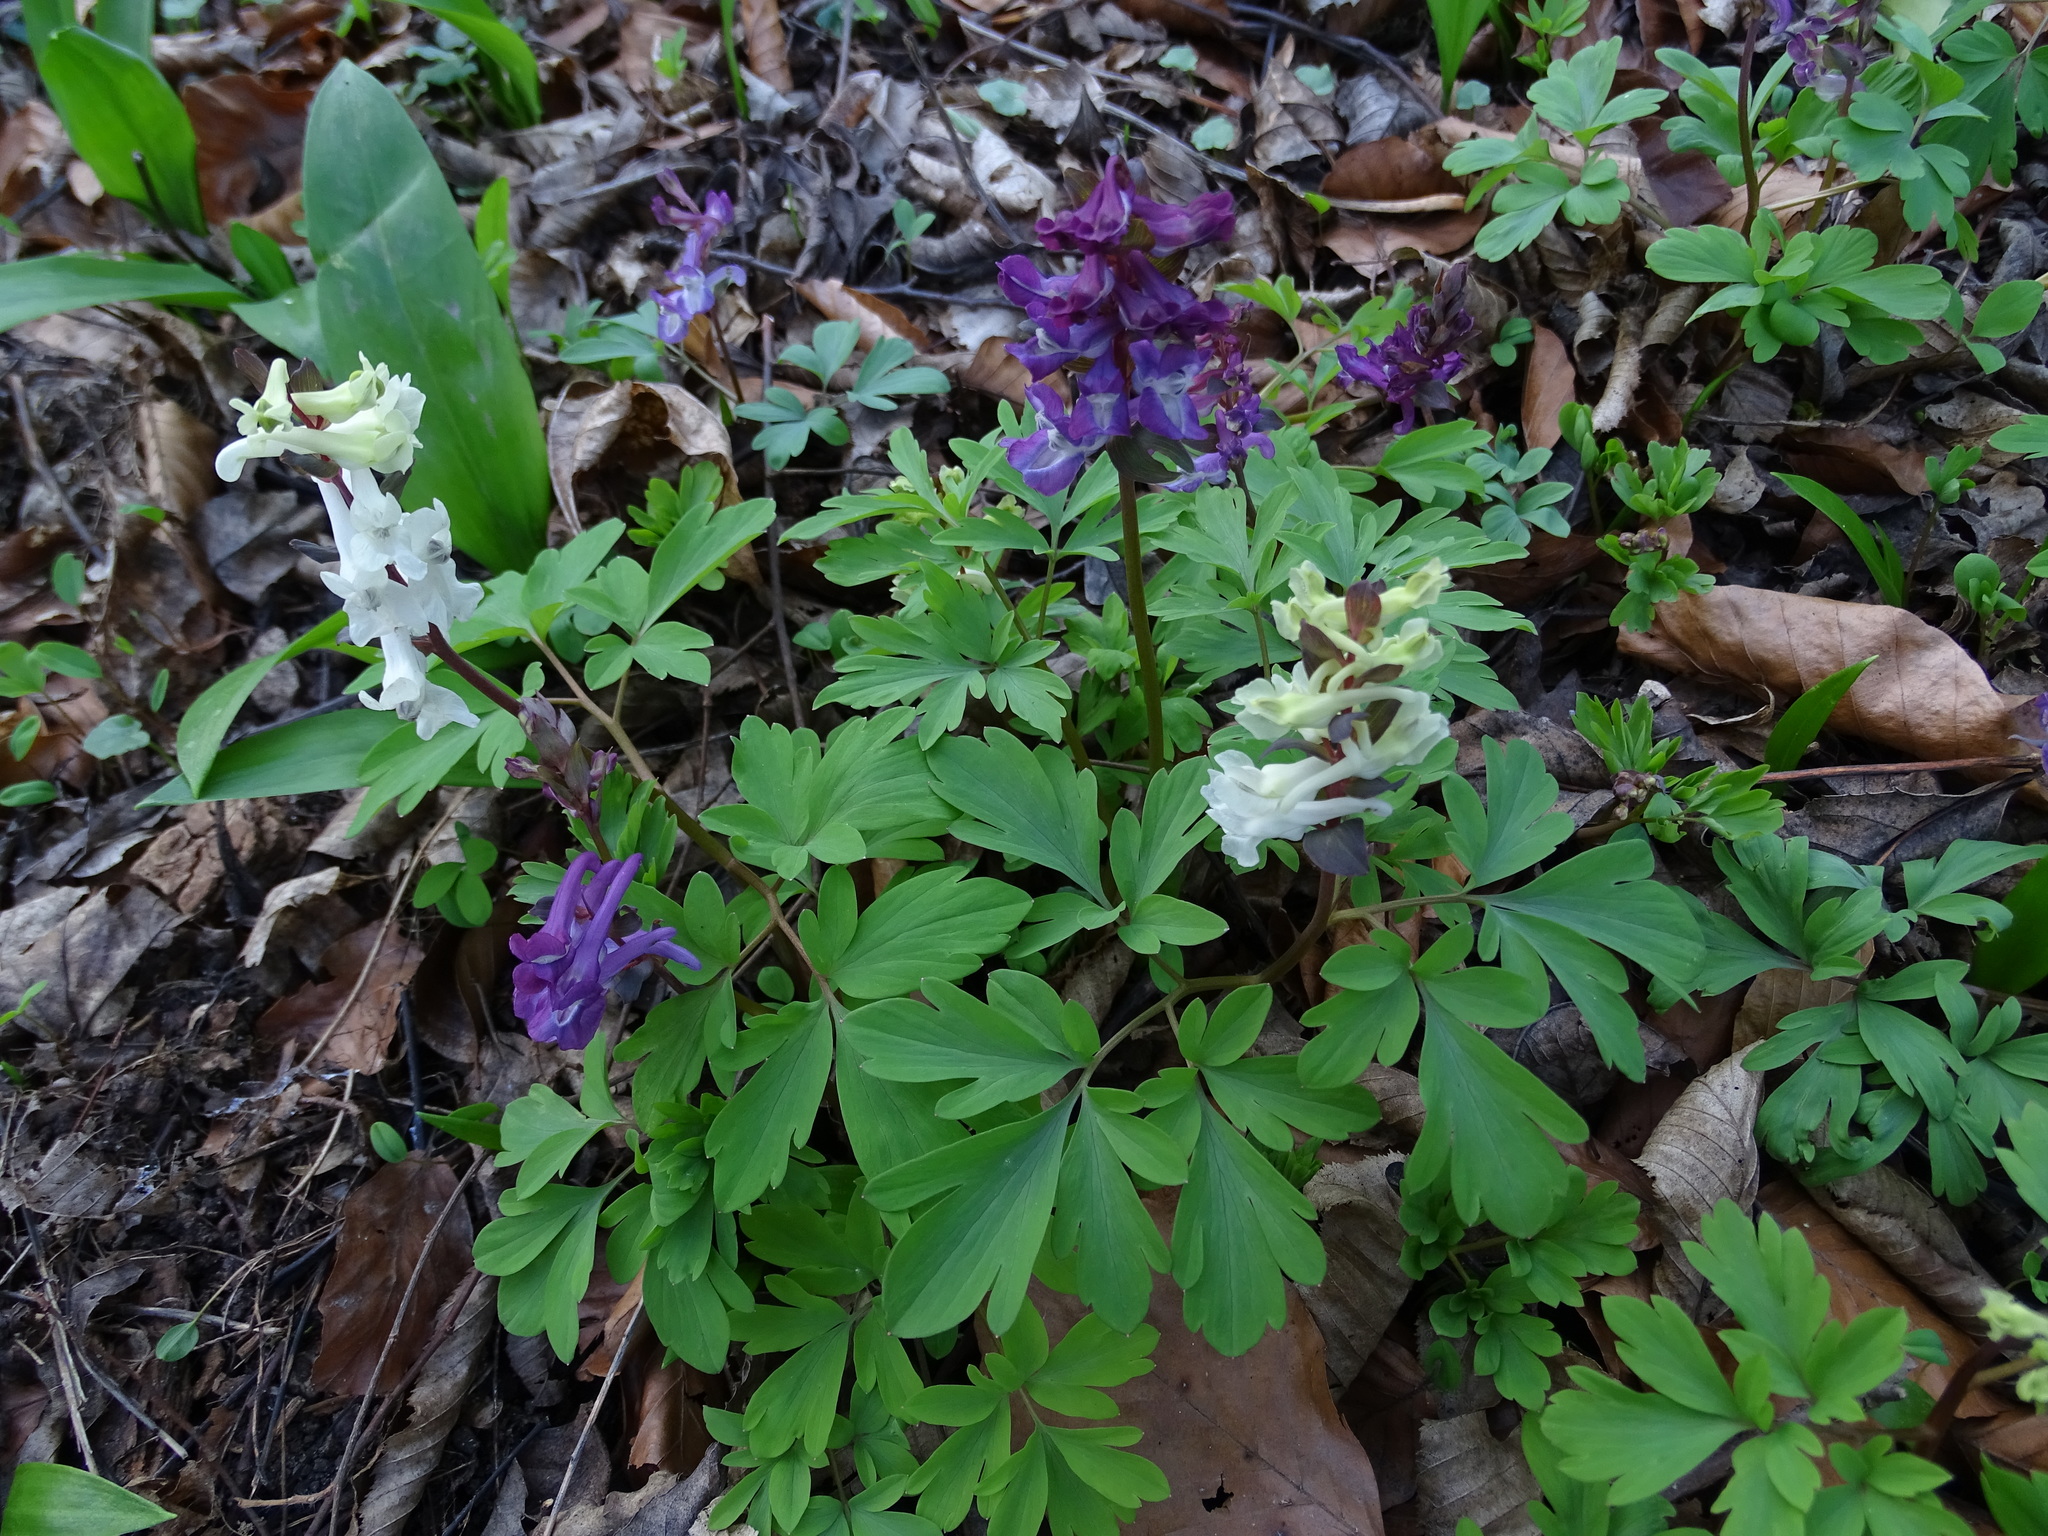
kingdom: Plantae
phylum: Tracheophyta
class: Magnoliopsida
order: Ranunculales
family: Papaveraceae
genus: Corydalis
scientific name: Corydalis cava
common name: Hollowroot
